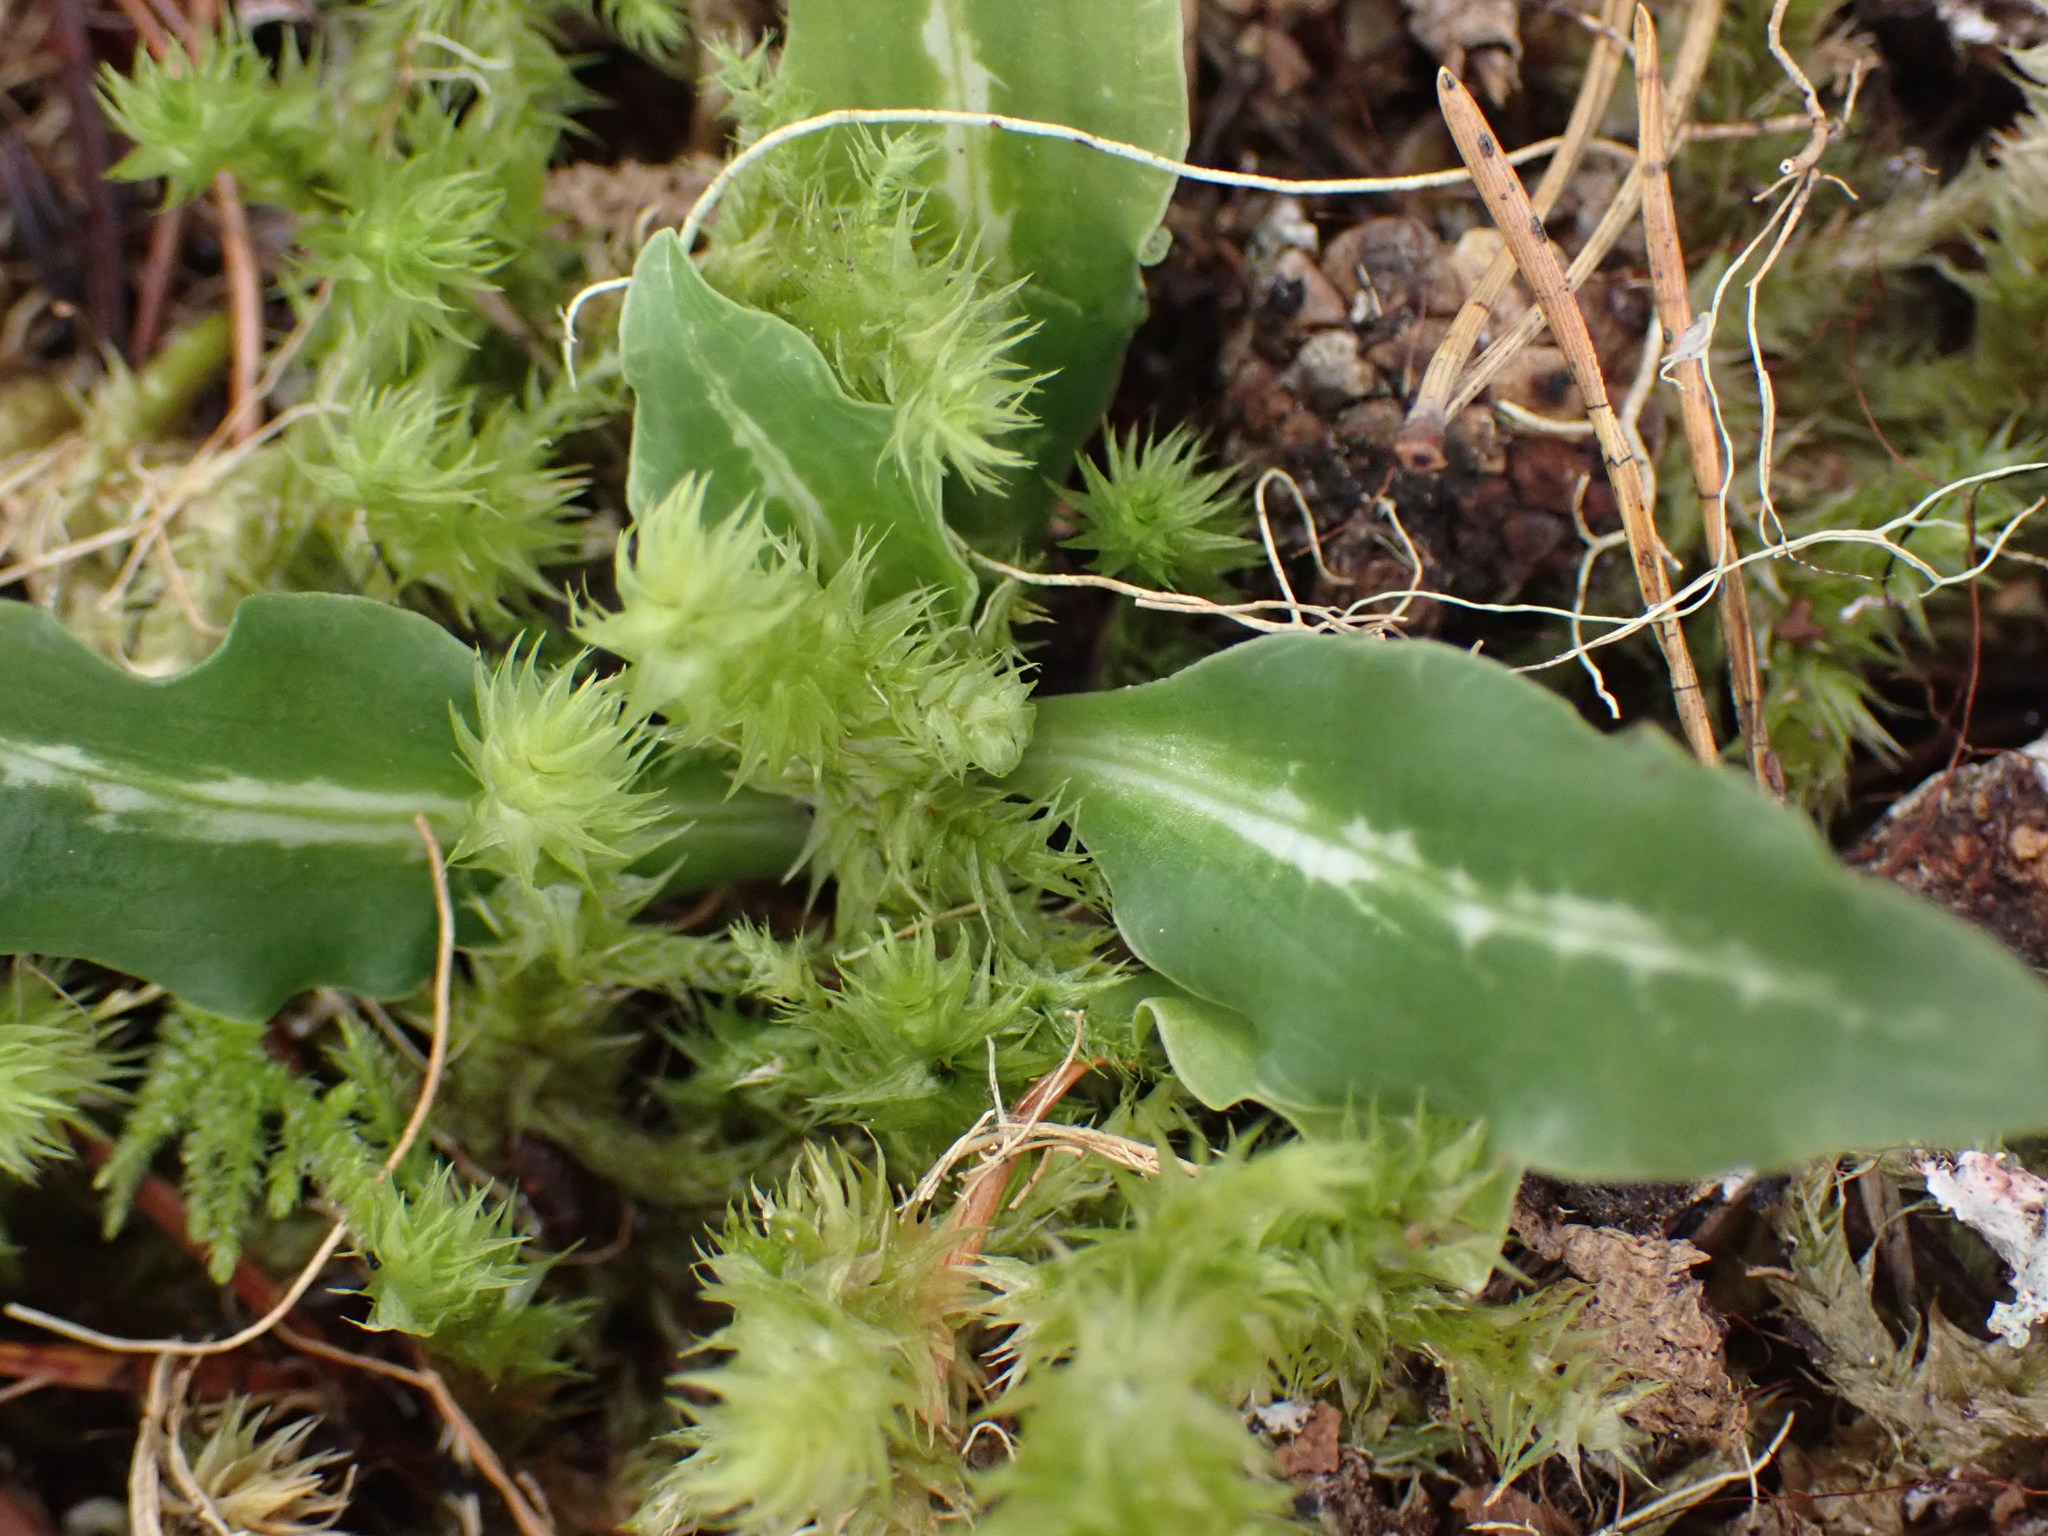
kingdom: Plantae
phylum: Tracheophyta
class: Liliopsida
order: Asparagales
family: Orchidaceae
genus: Goodyera
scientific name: Goodyera oblongifolia
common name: Giant rattlesnake-plantain
